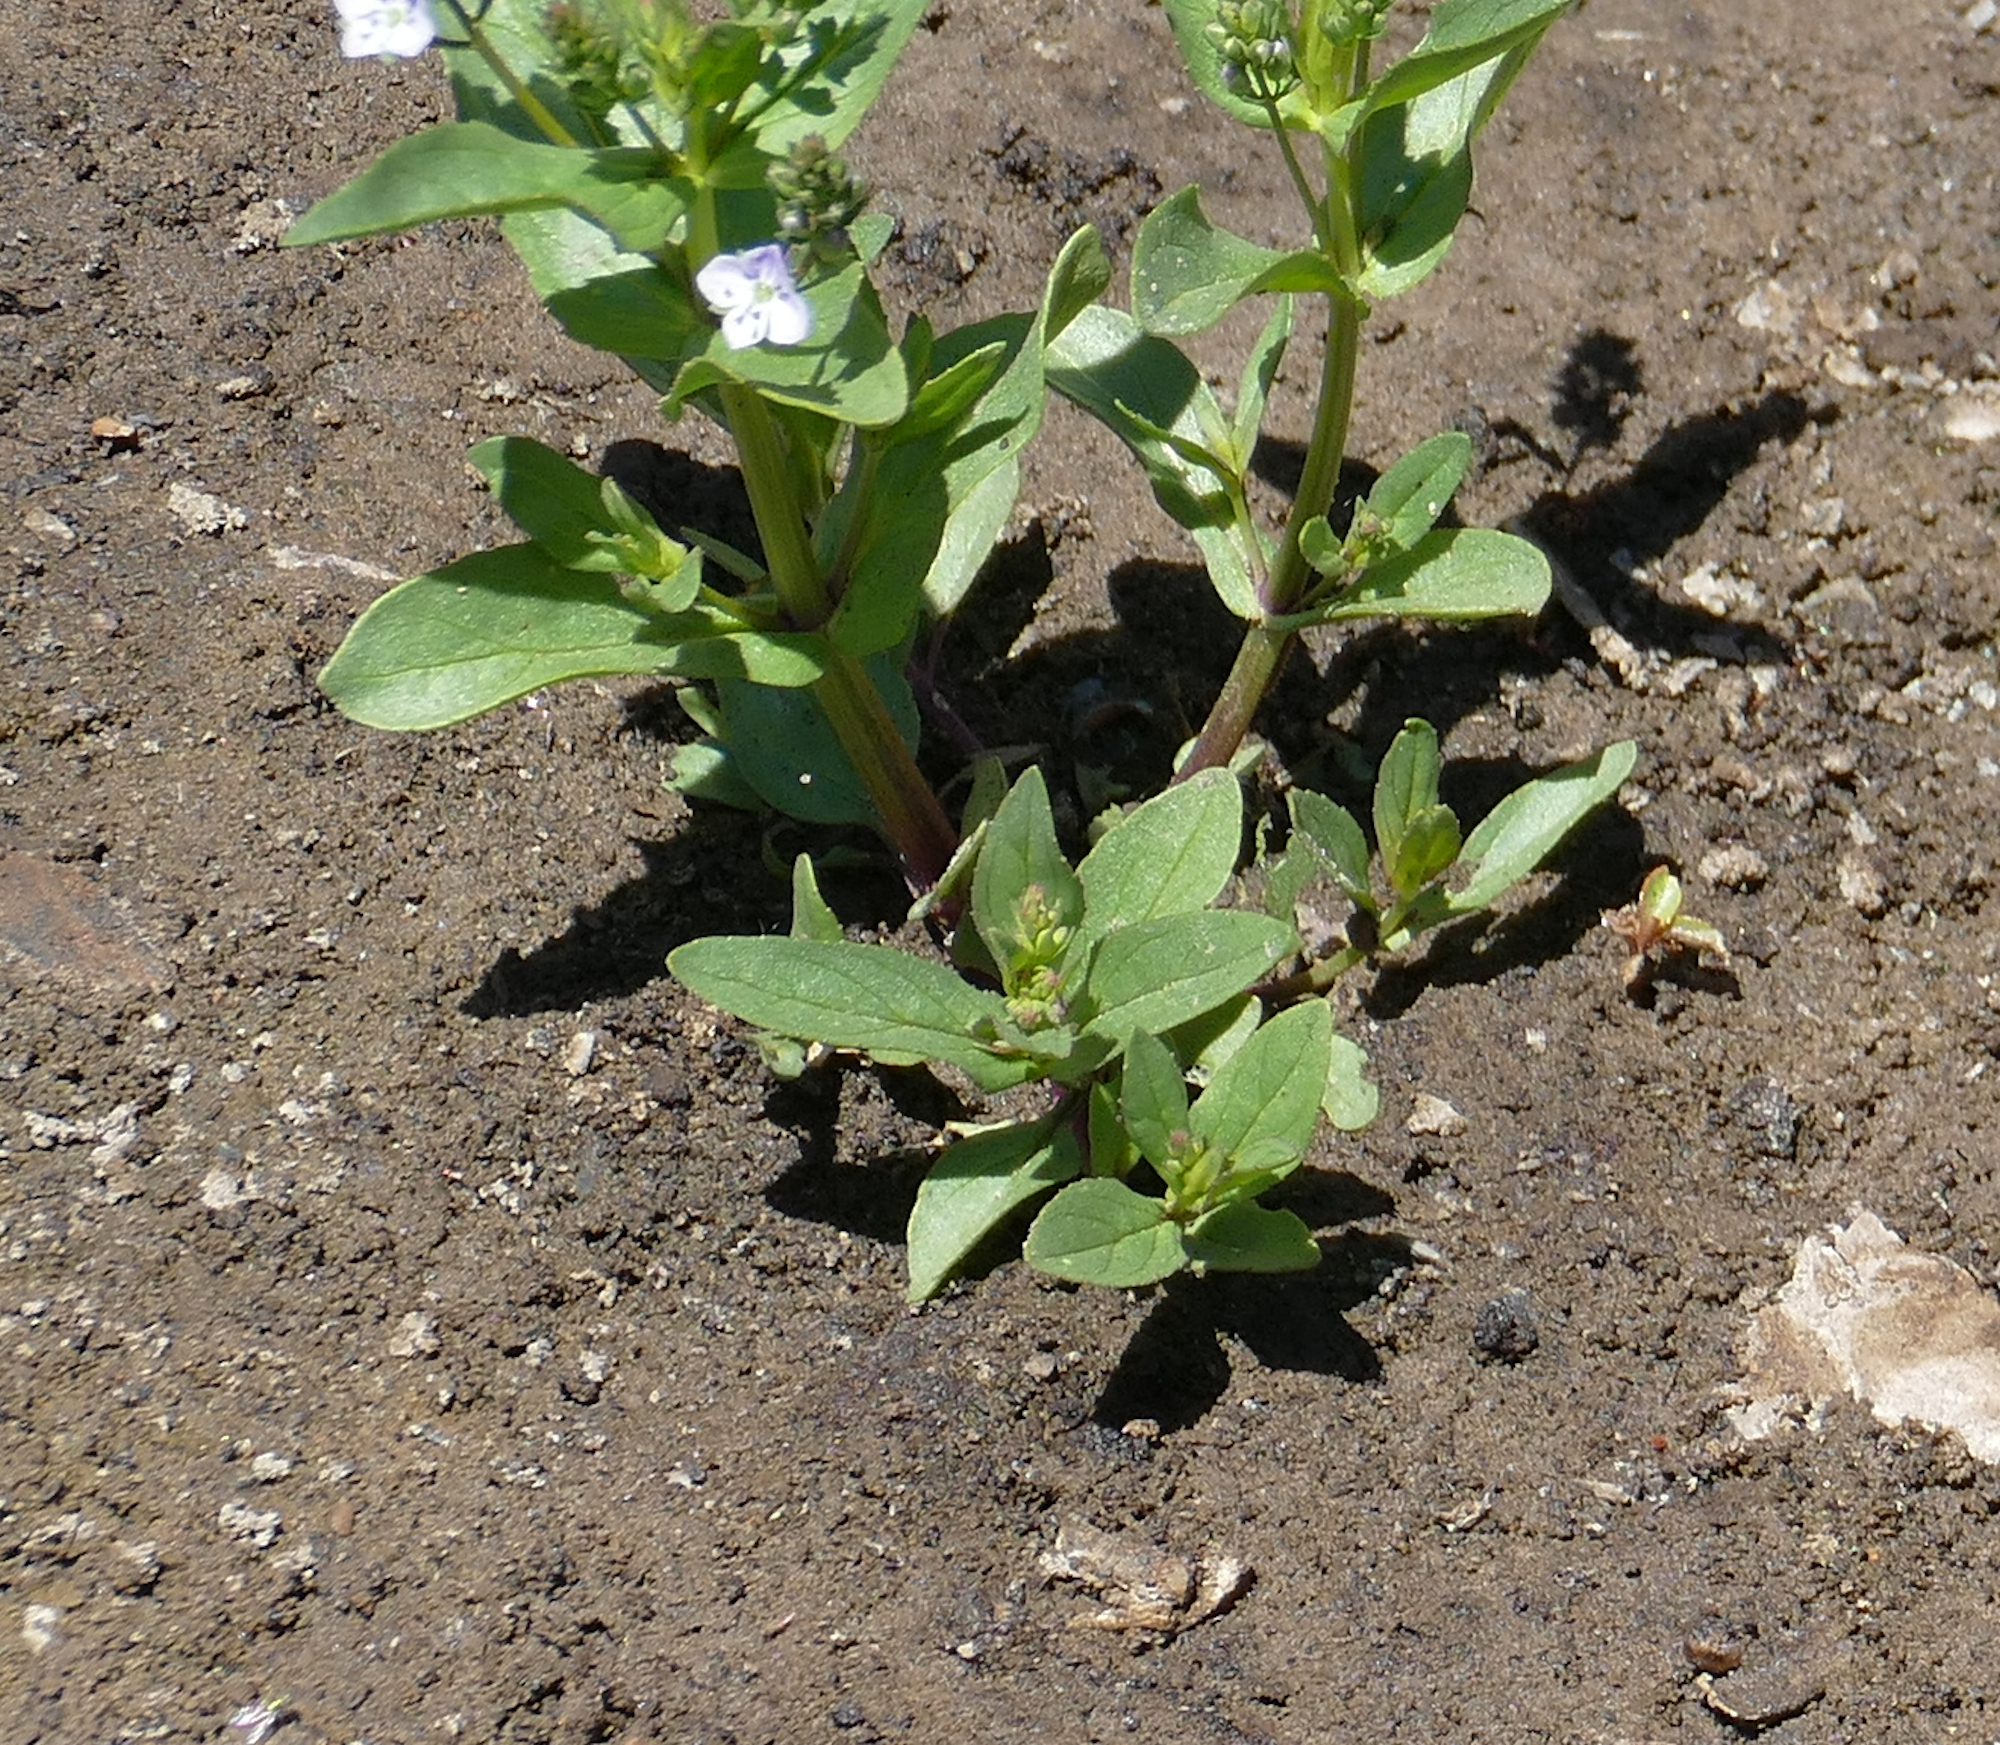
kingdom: Plantae
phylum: Tracheophyta
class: Magnoliopsida
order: Lamiales
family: Plantaginaceae
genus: Veronica
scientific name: Veronica anagallis-aquatica
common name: Water speedwell
